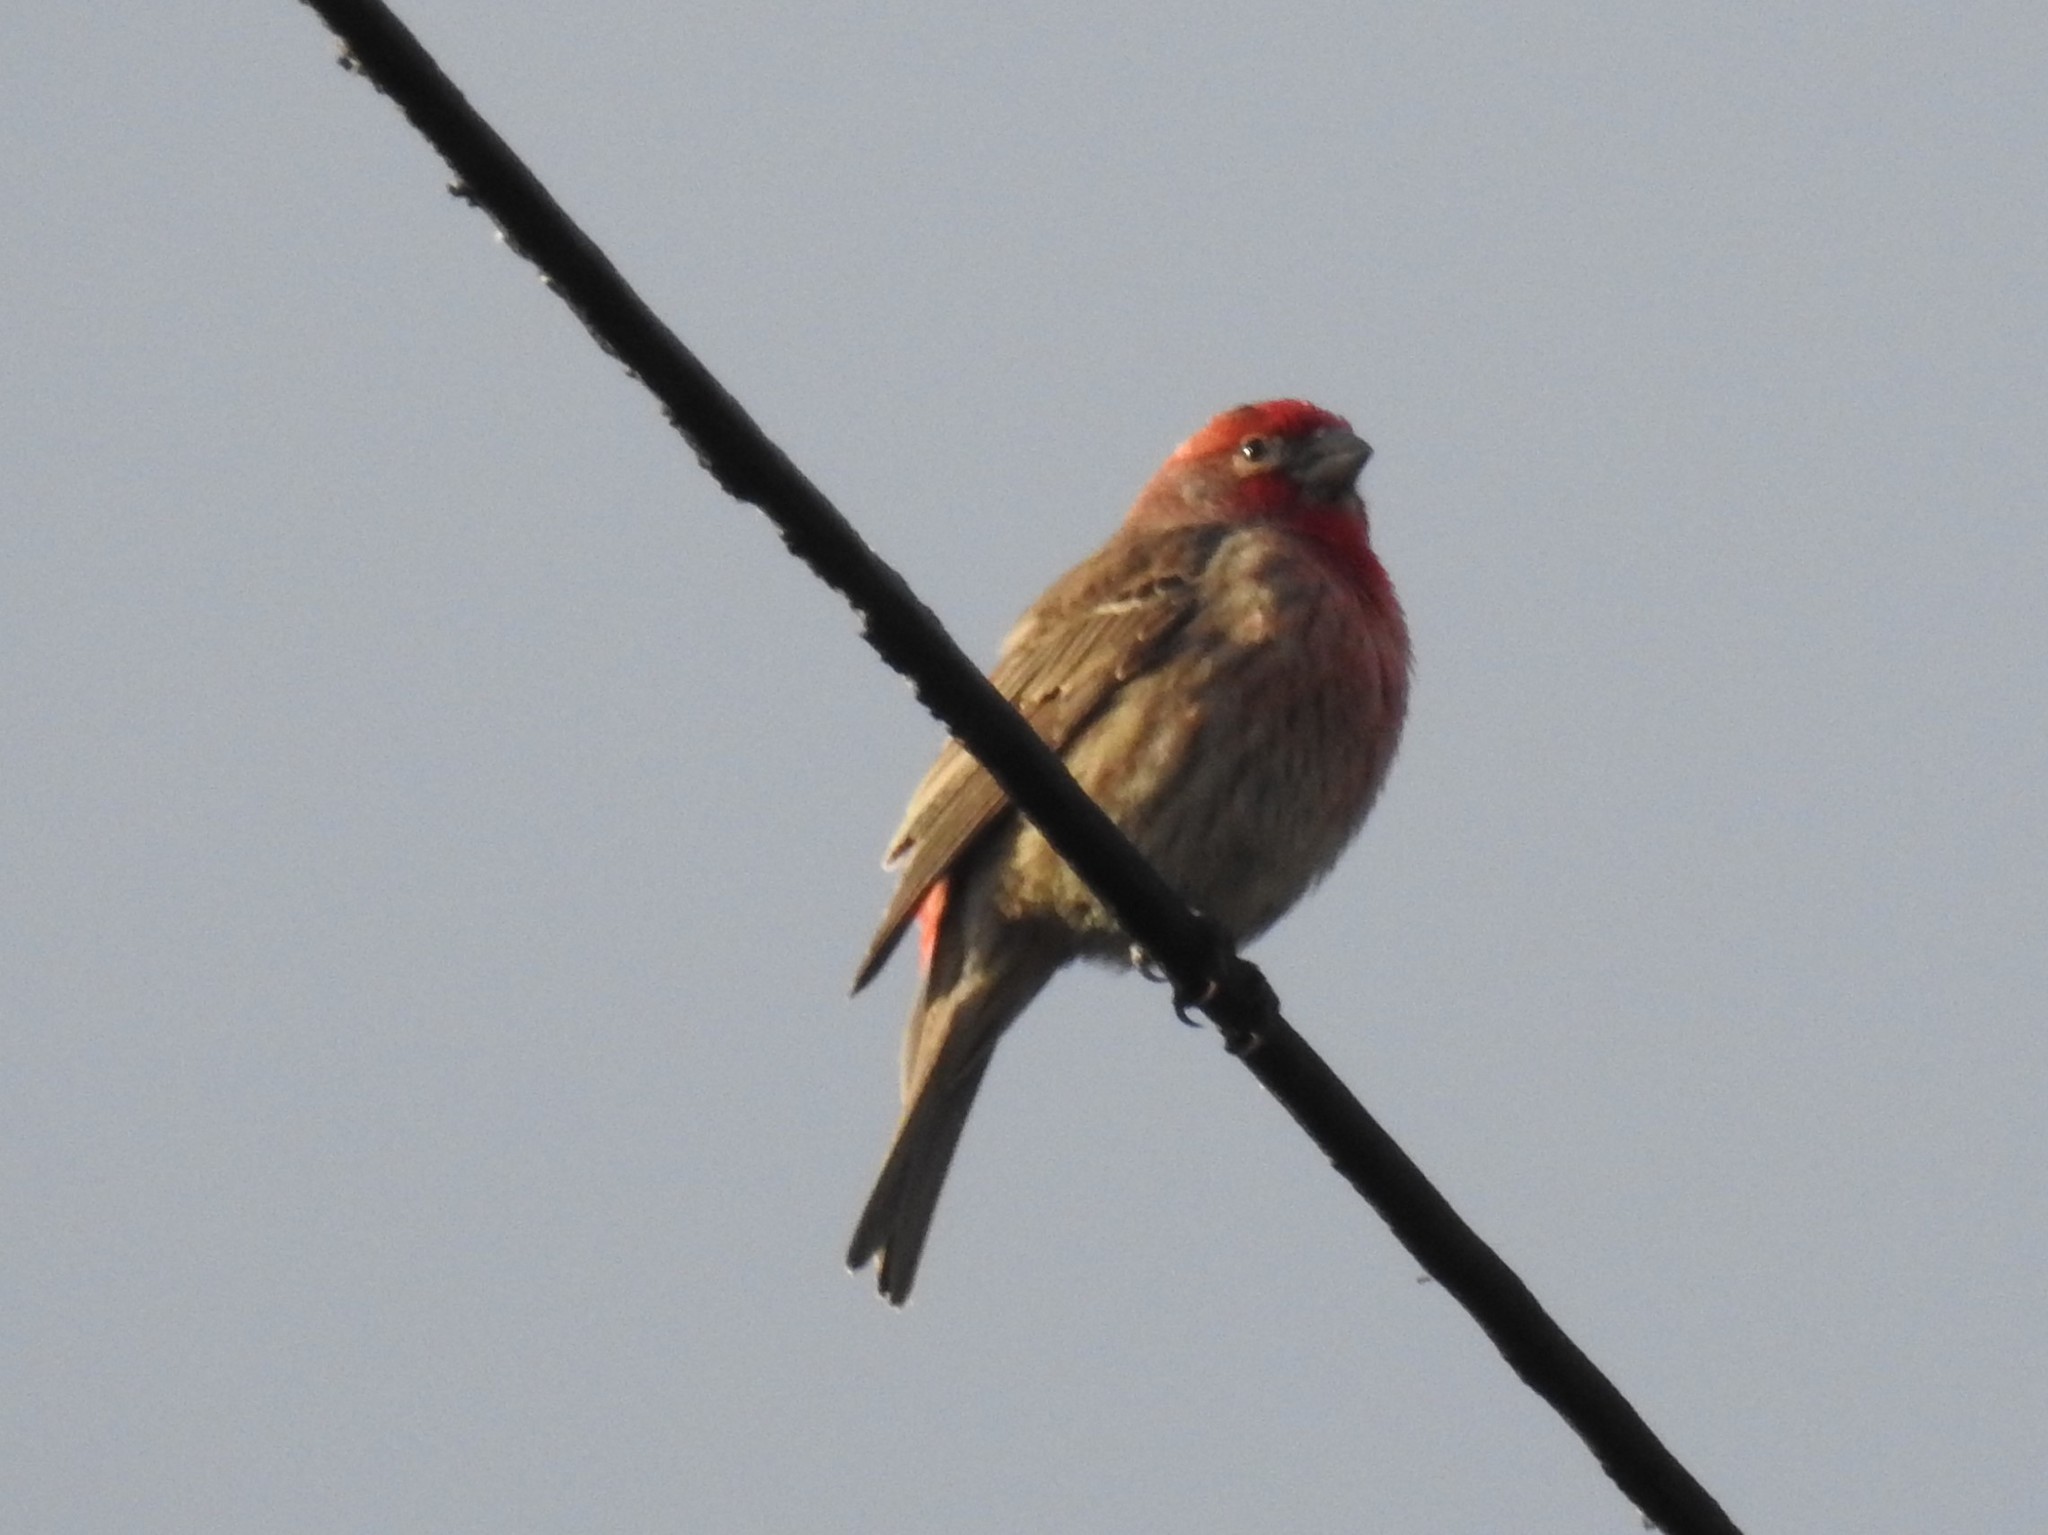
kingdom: Animalia
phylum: Chordata
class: Aves
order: Passeriformes
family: Fringillidae
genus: Haemorhous
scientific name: Haemorhous mexicanus
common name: House finch
